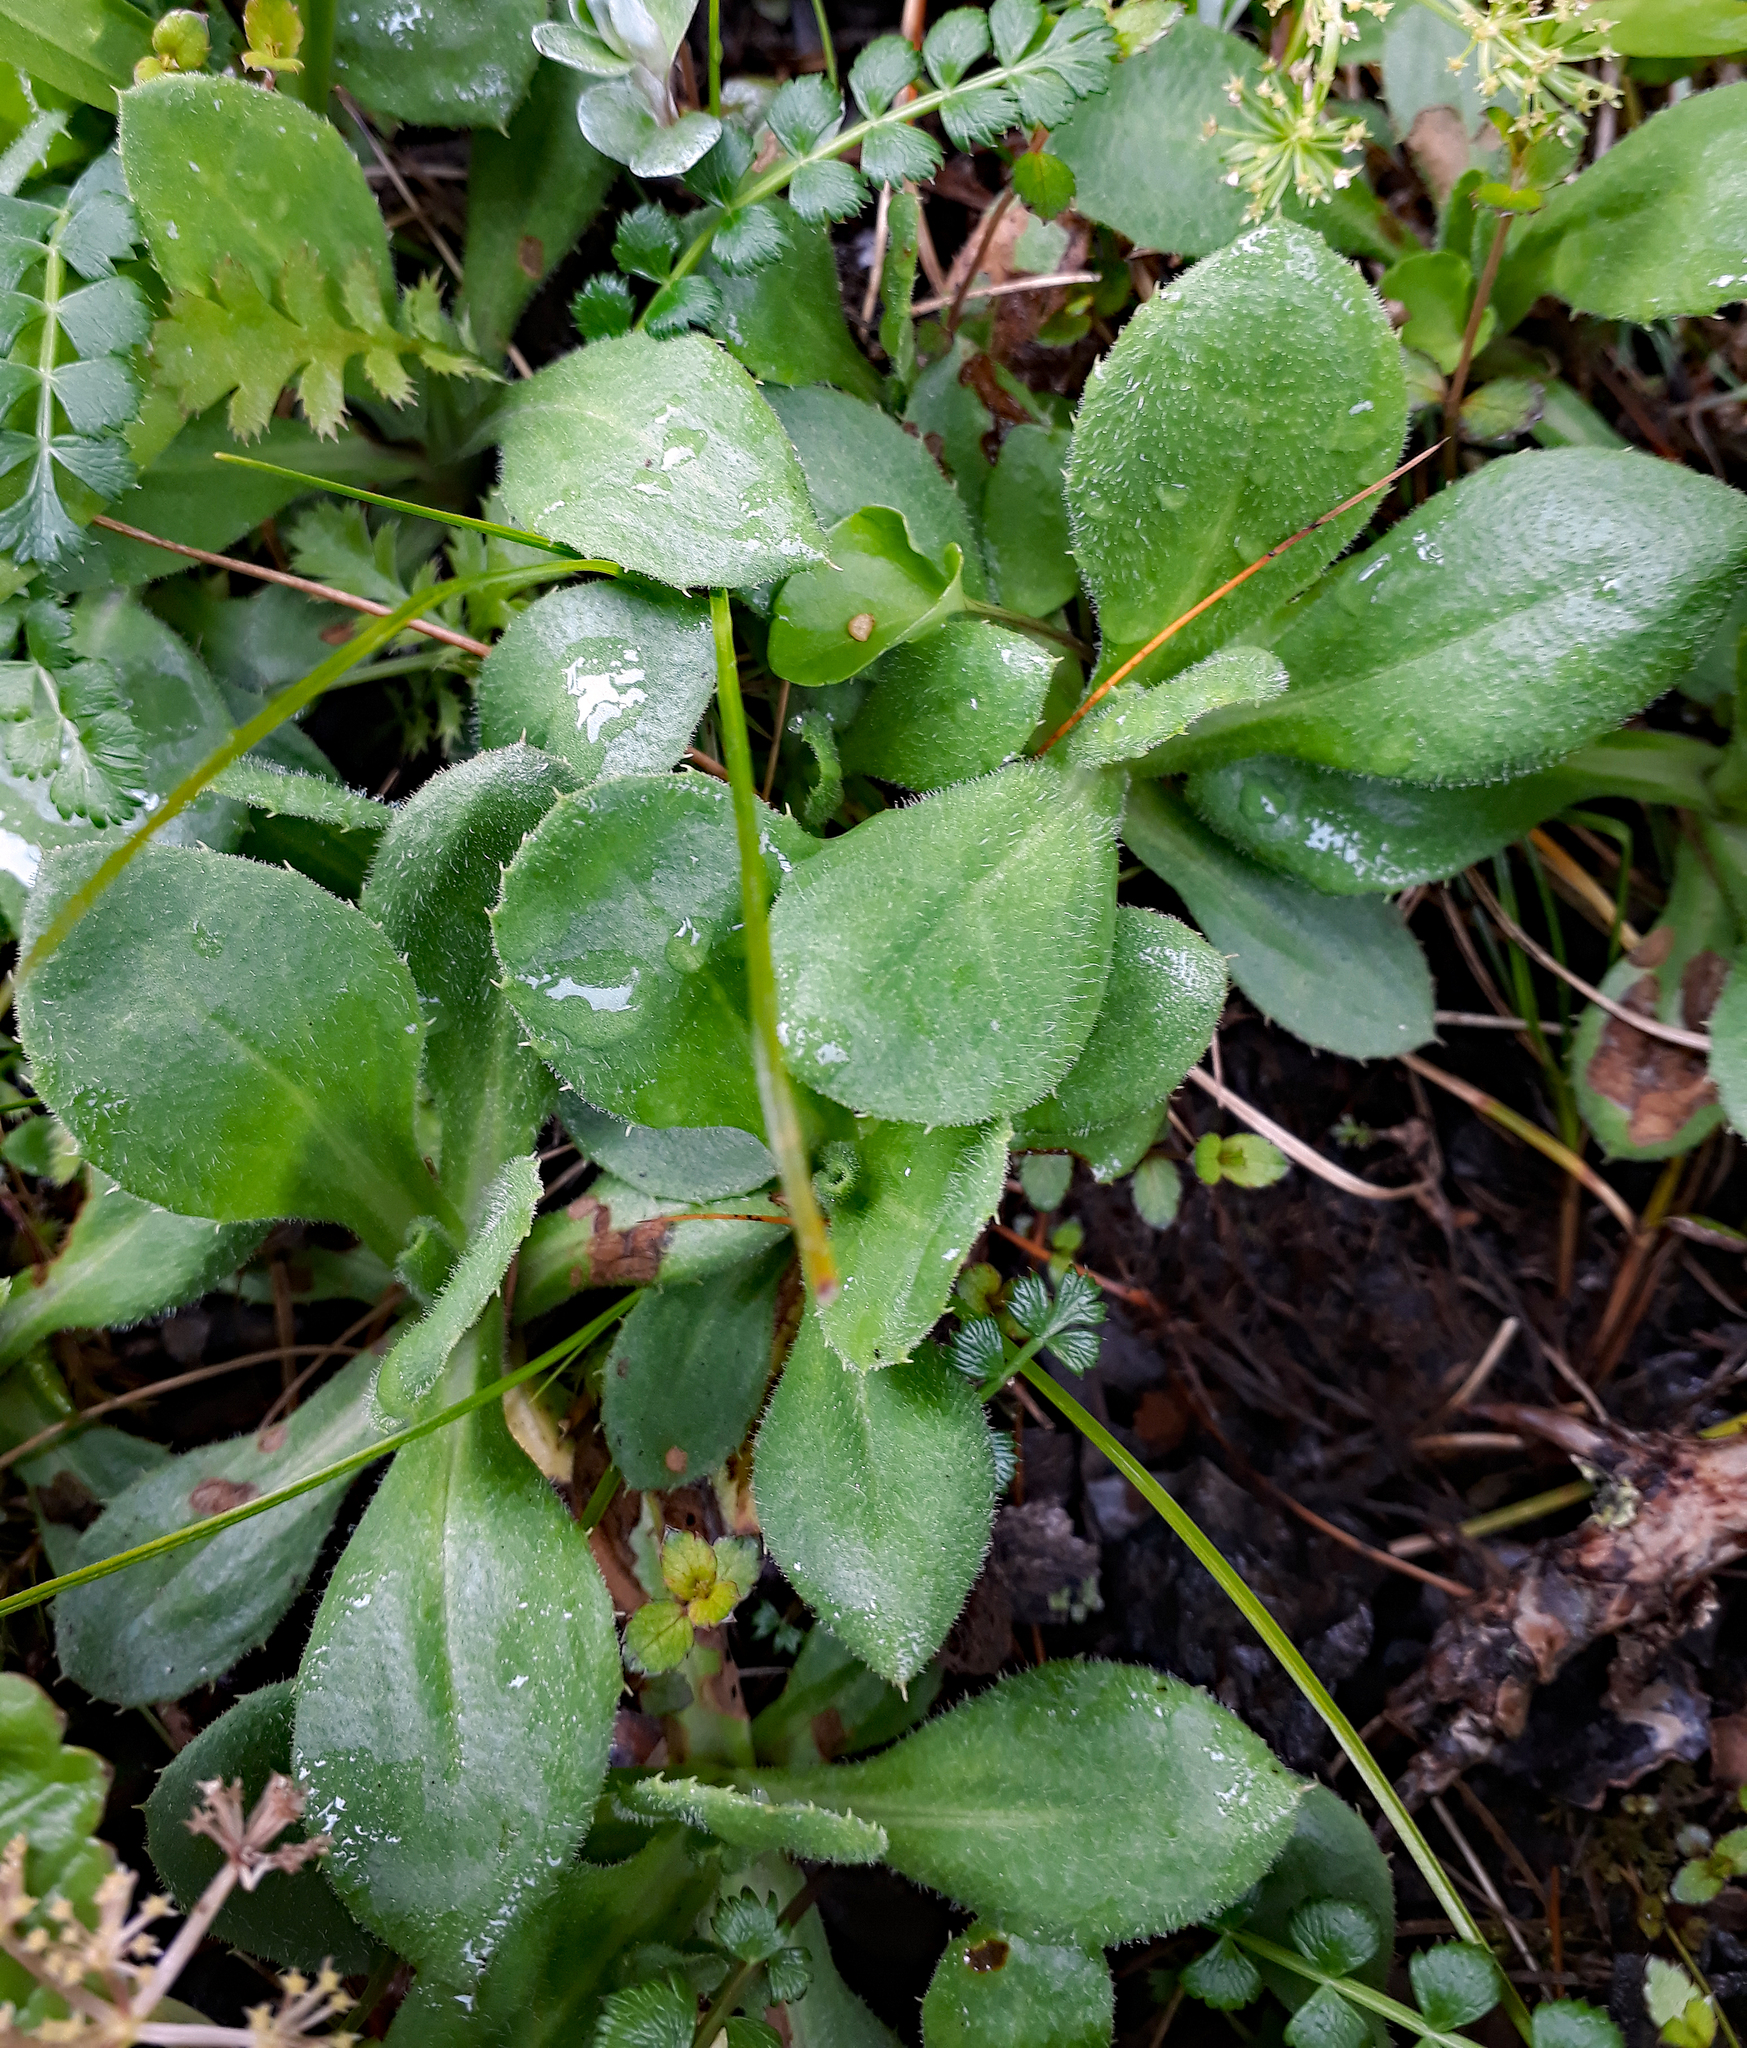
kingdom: Plantae
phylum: Tracheophyta
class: Magnoliopsida
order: Asterales
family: Asteraceae
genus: Celmisia
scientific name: Celmisia glandulosa
